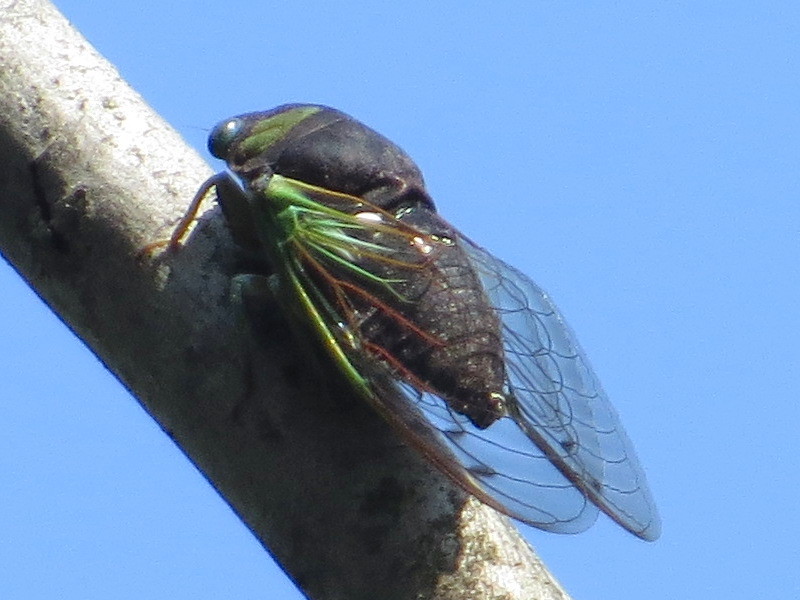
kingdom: Animalia
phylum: Arthropoda
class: Insecta
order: Hemiptera
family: Cicadidae
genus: Neotibicen
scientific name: Neotibicen tibicen
